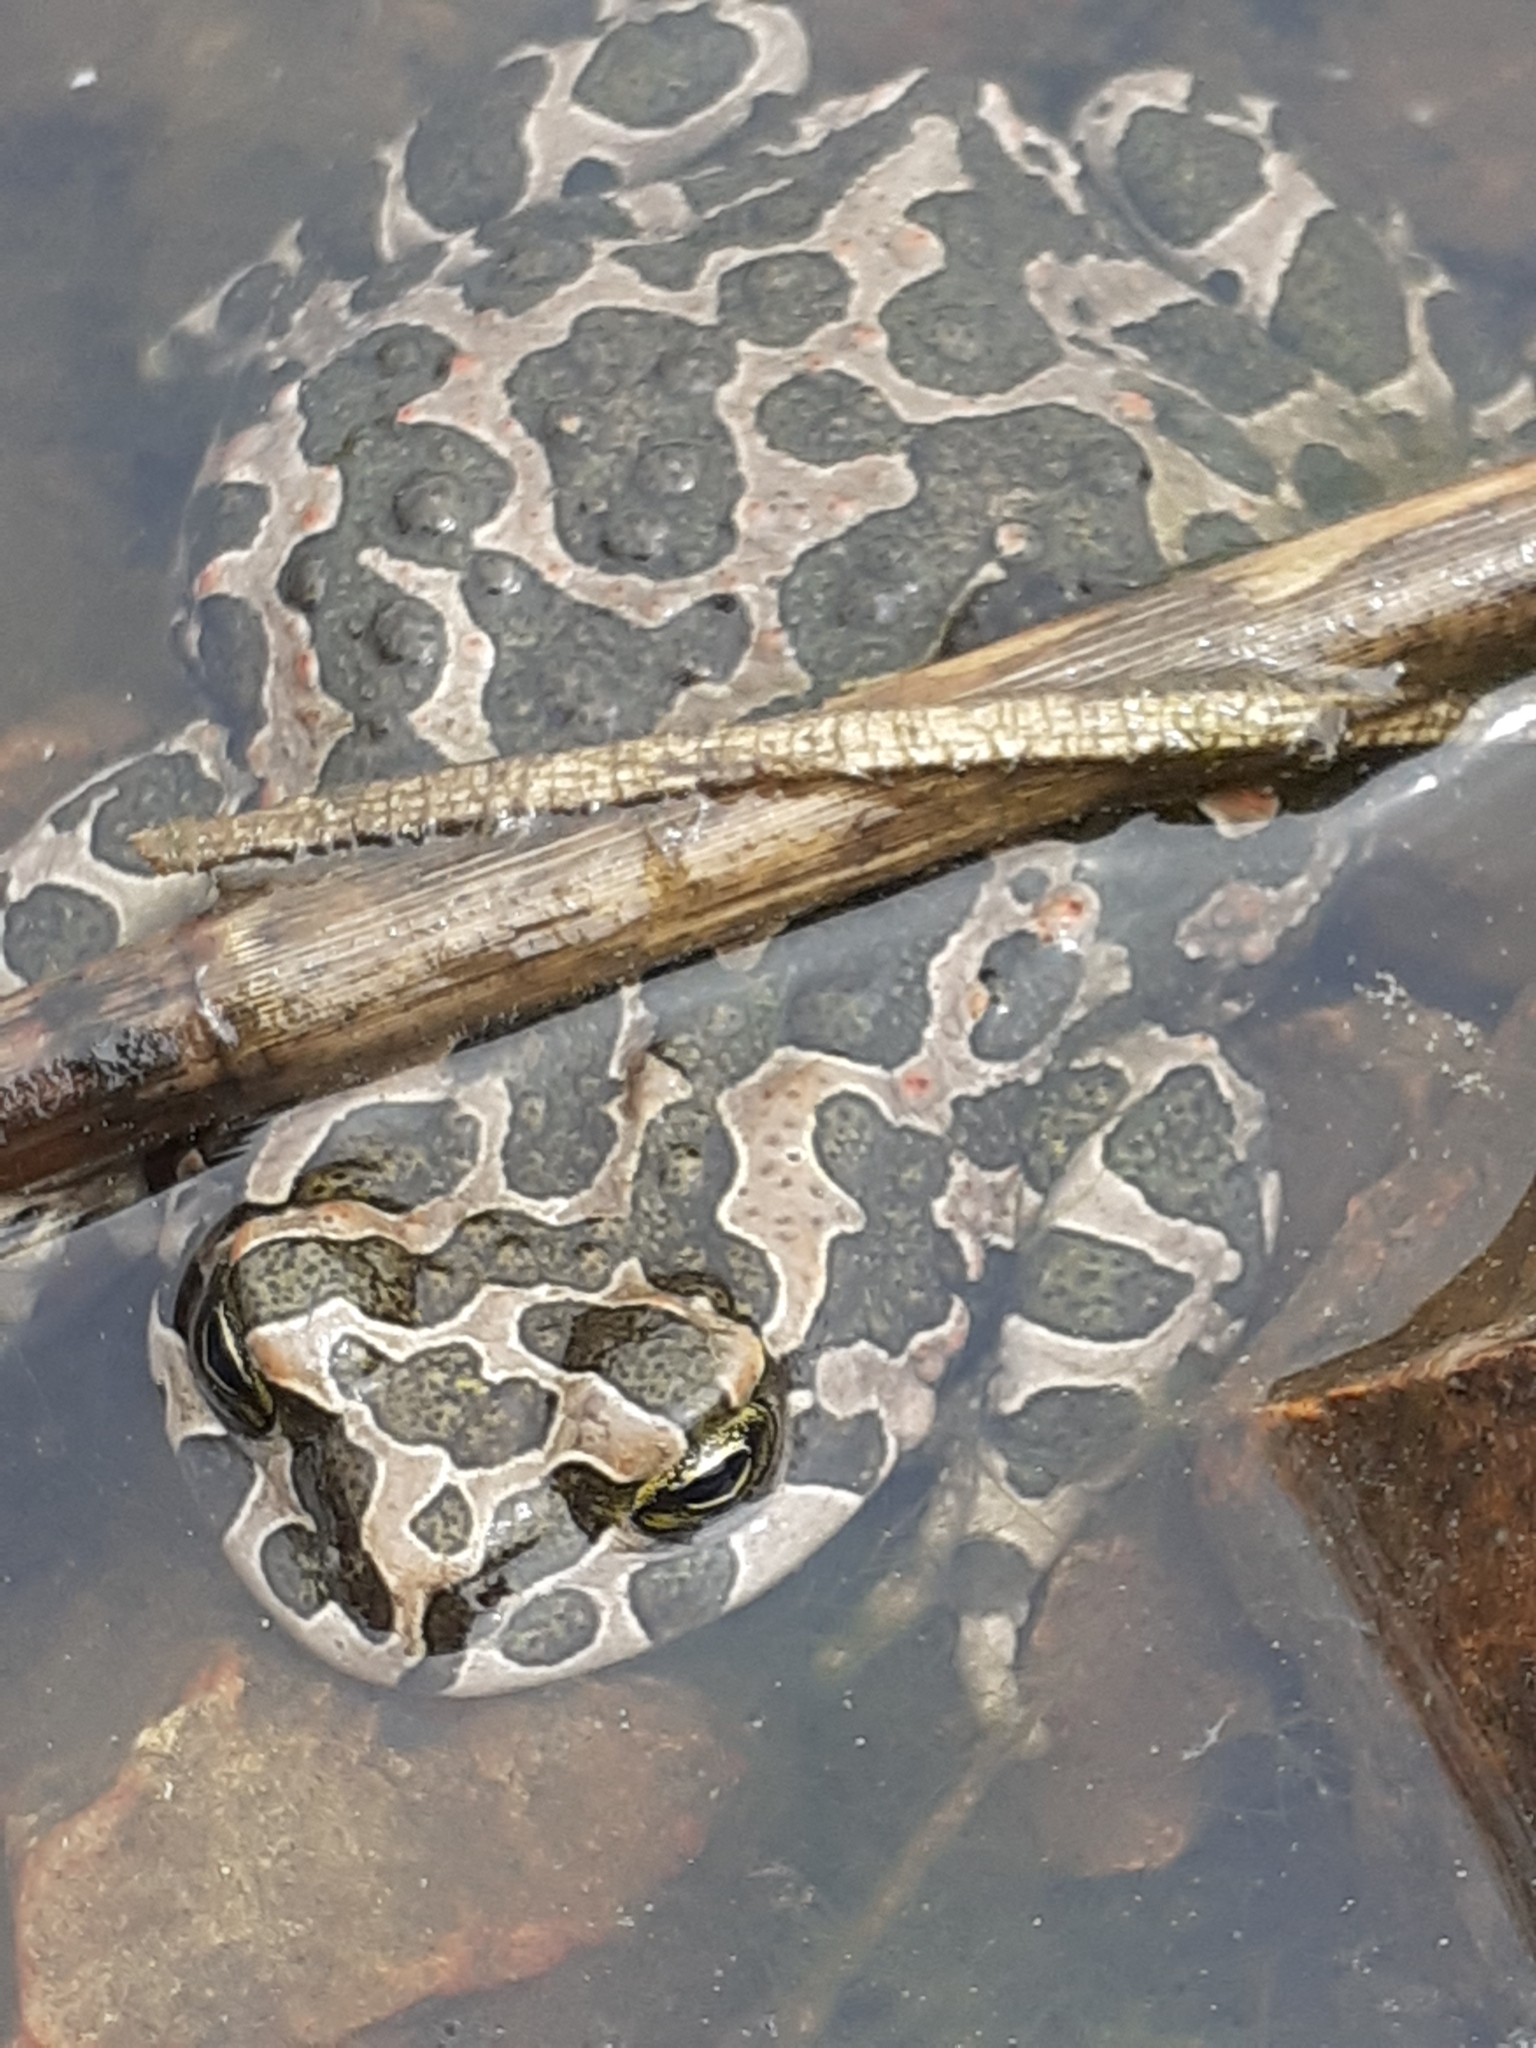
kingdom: Animalia
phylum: Chordata
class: Amphibia
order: Anura
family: Bufonidae
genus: Bufotes
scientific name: Bufotes viridis
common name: European green toad
